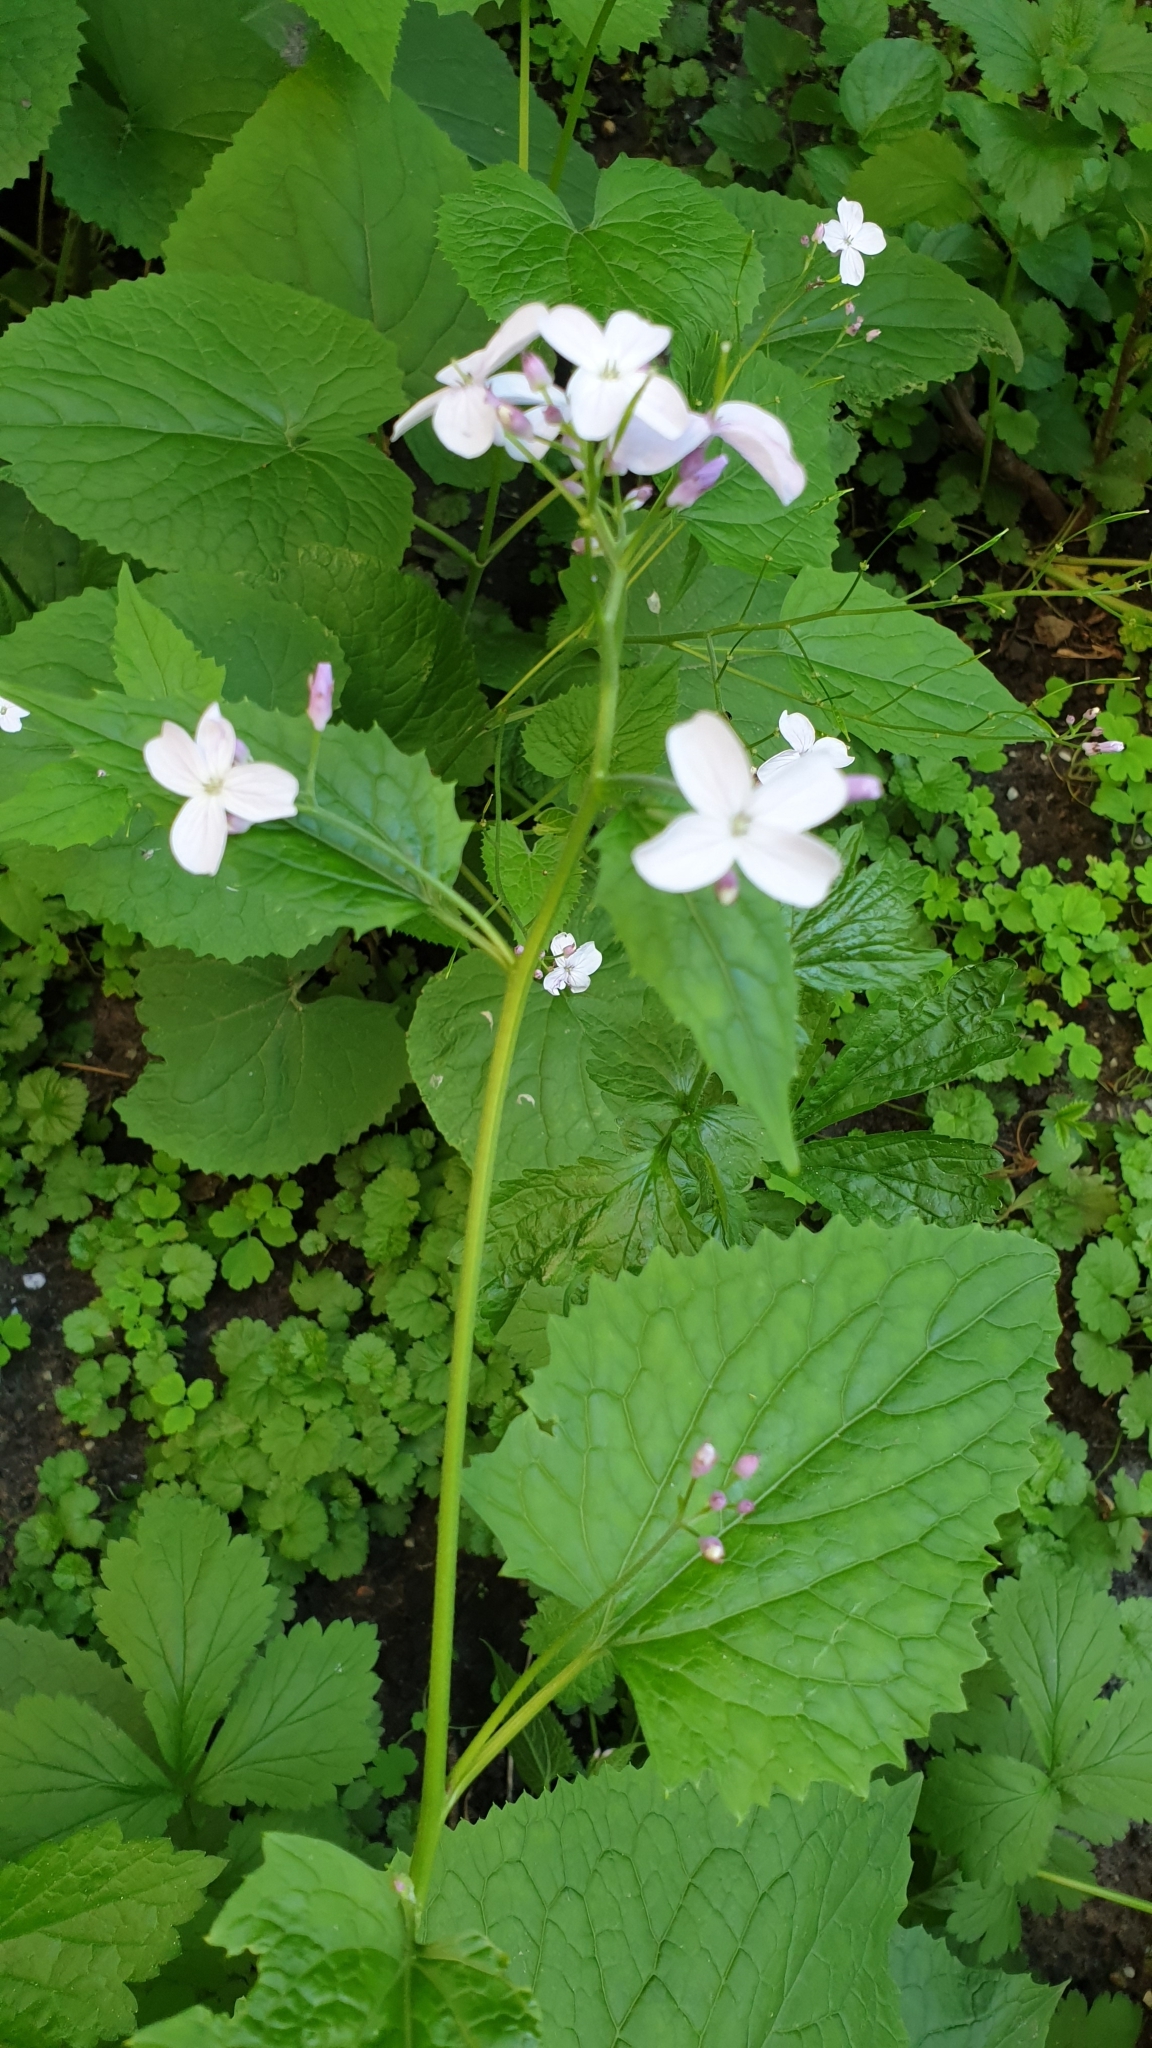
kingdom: Plantae
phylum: Tracheophyta
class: Magnoliopsida
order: Brassicales
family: Brassicaceae
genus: Lunaria
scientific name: Lunaria rediviva
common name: Perennial honesty
